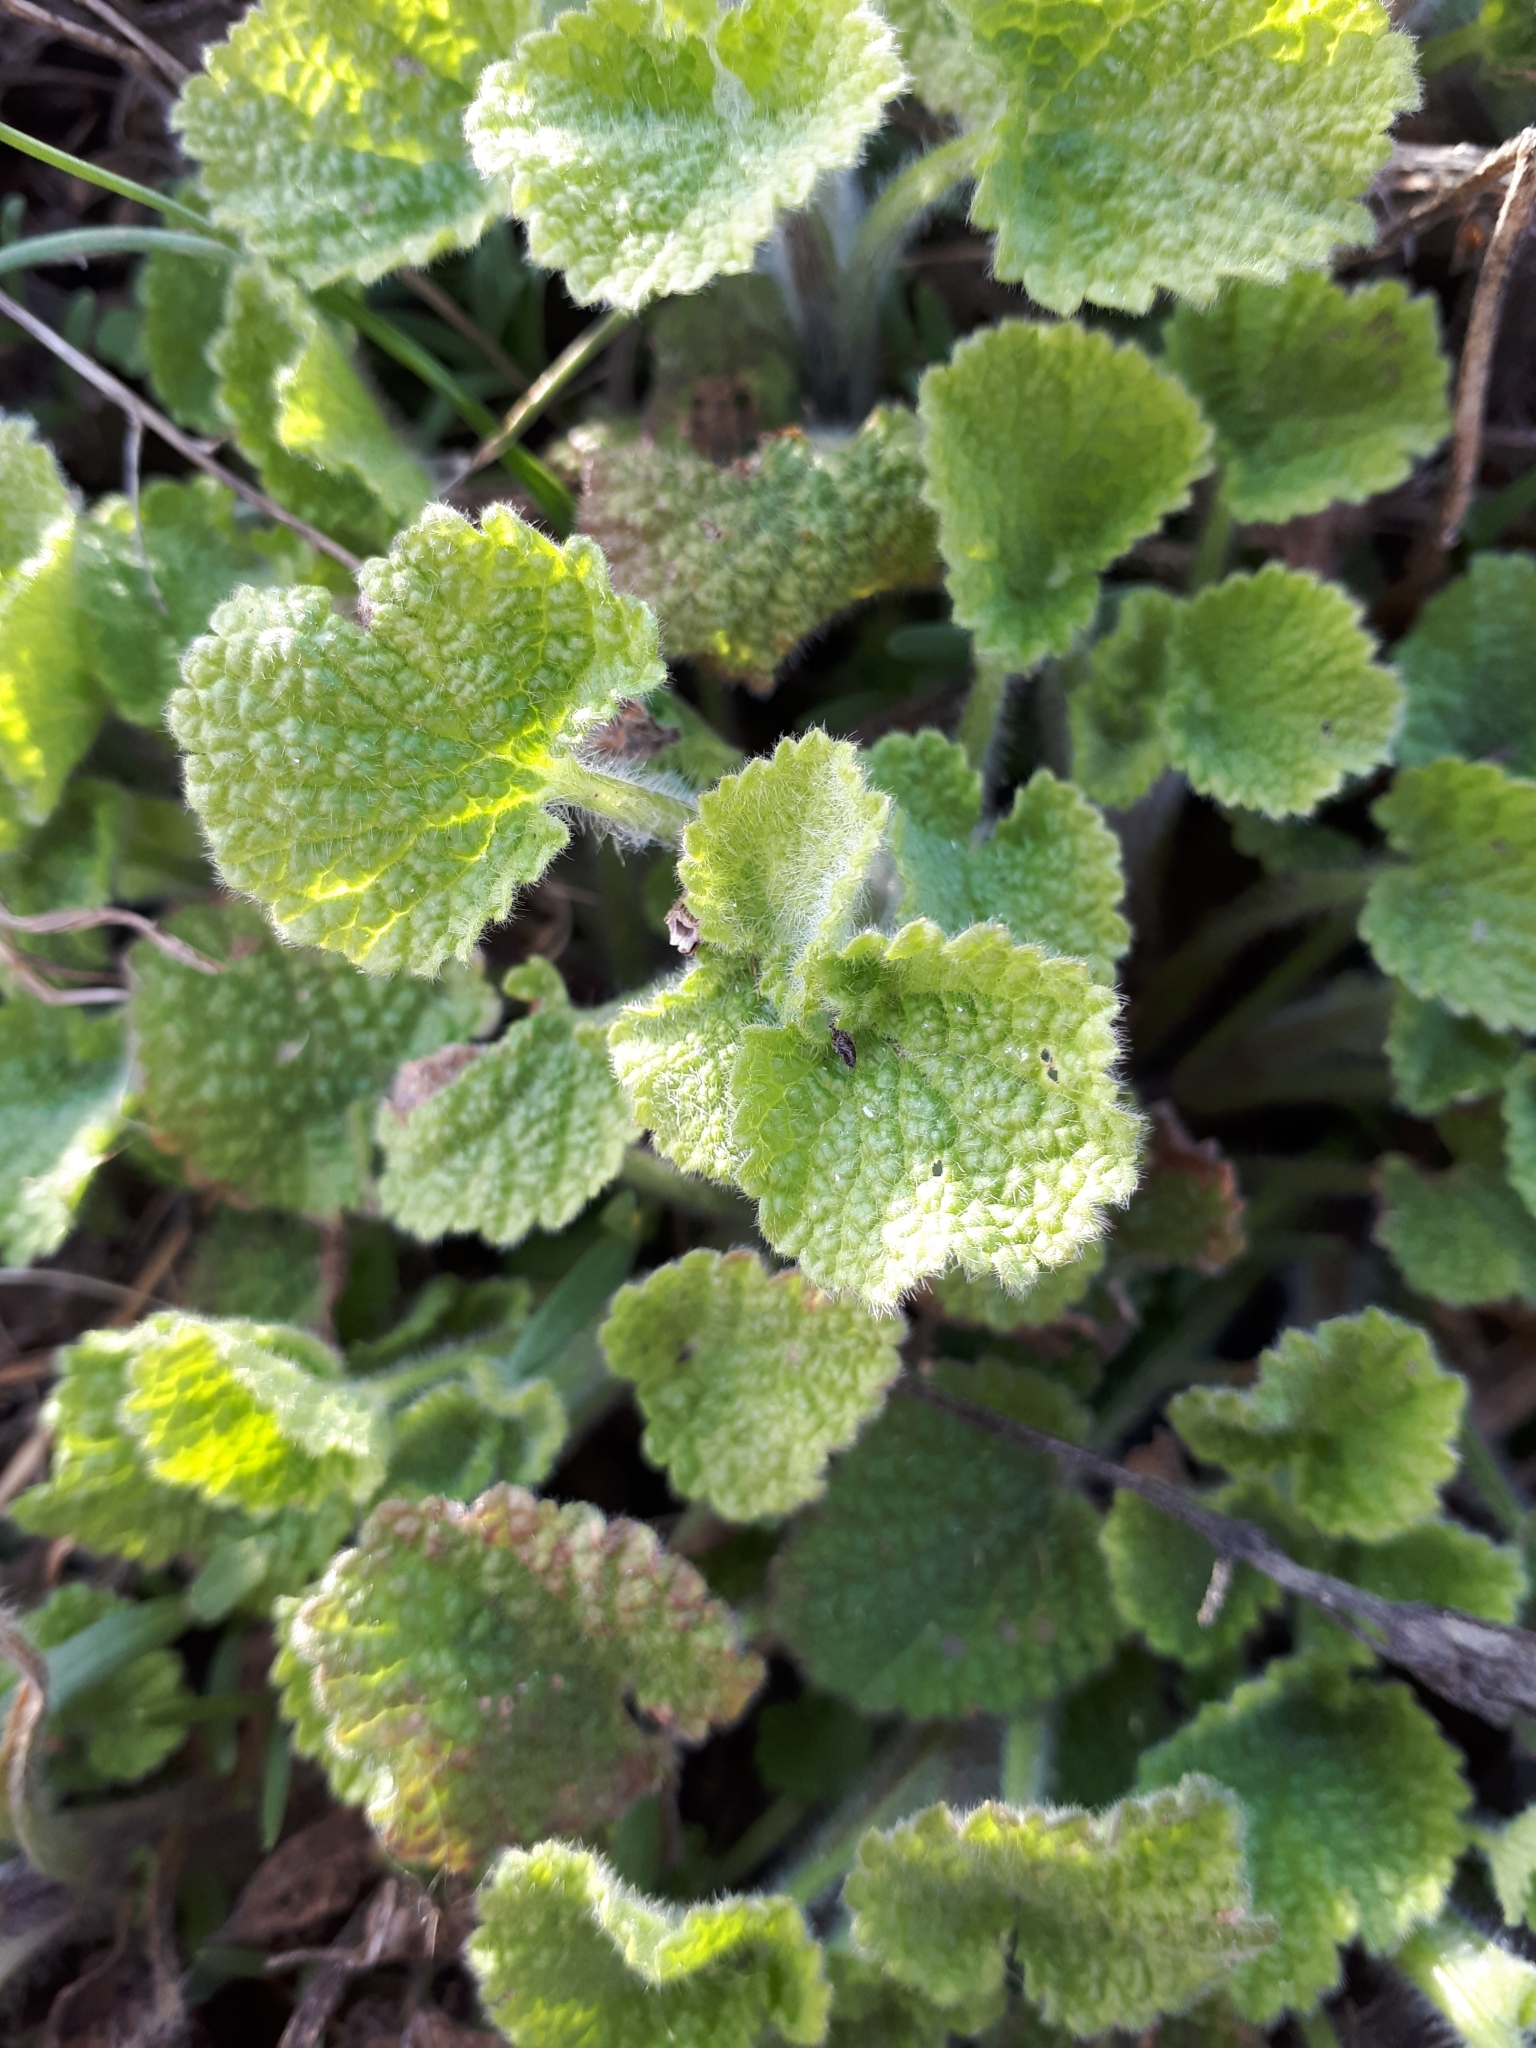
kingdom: Plantae
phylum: Tracheophyta
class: Magnoliopsida
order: Lamiales
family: Lamiaceae
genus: Ballota
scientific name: Ballota nigra
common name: Black horehound
